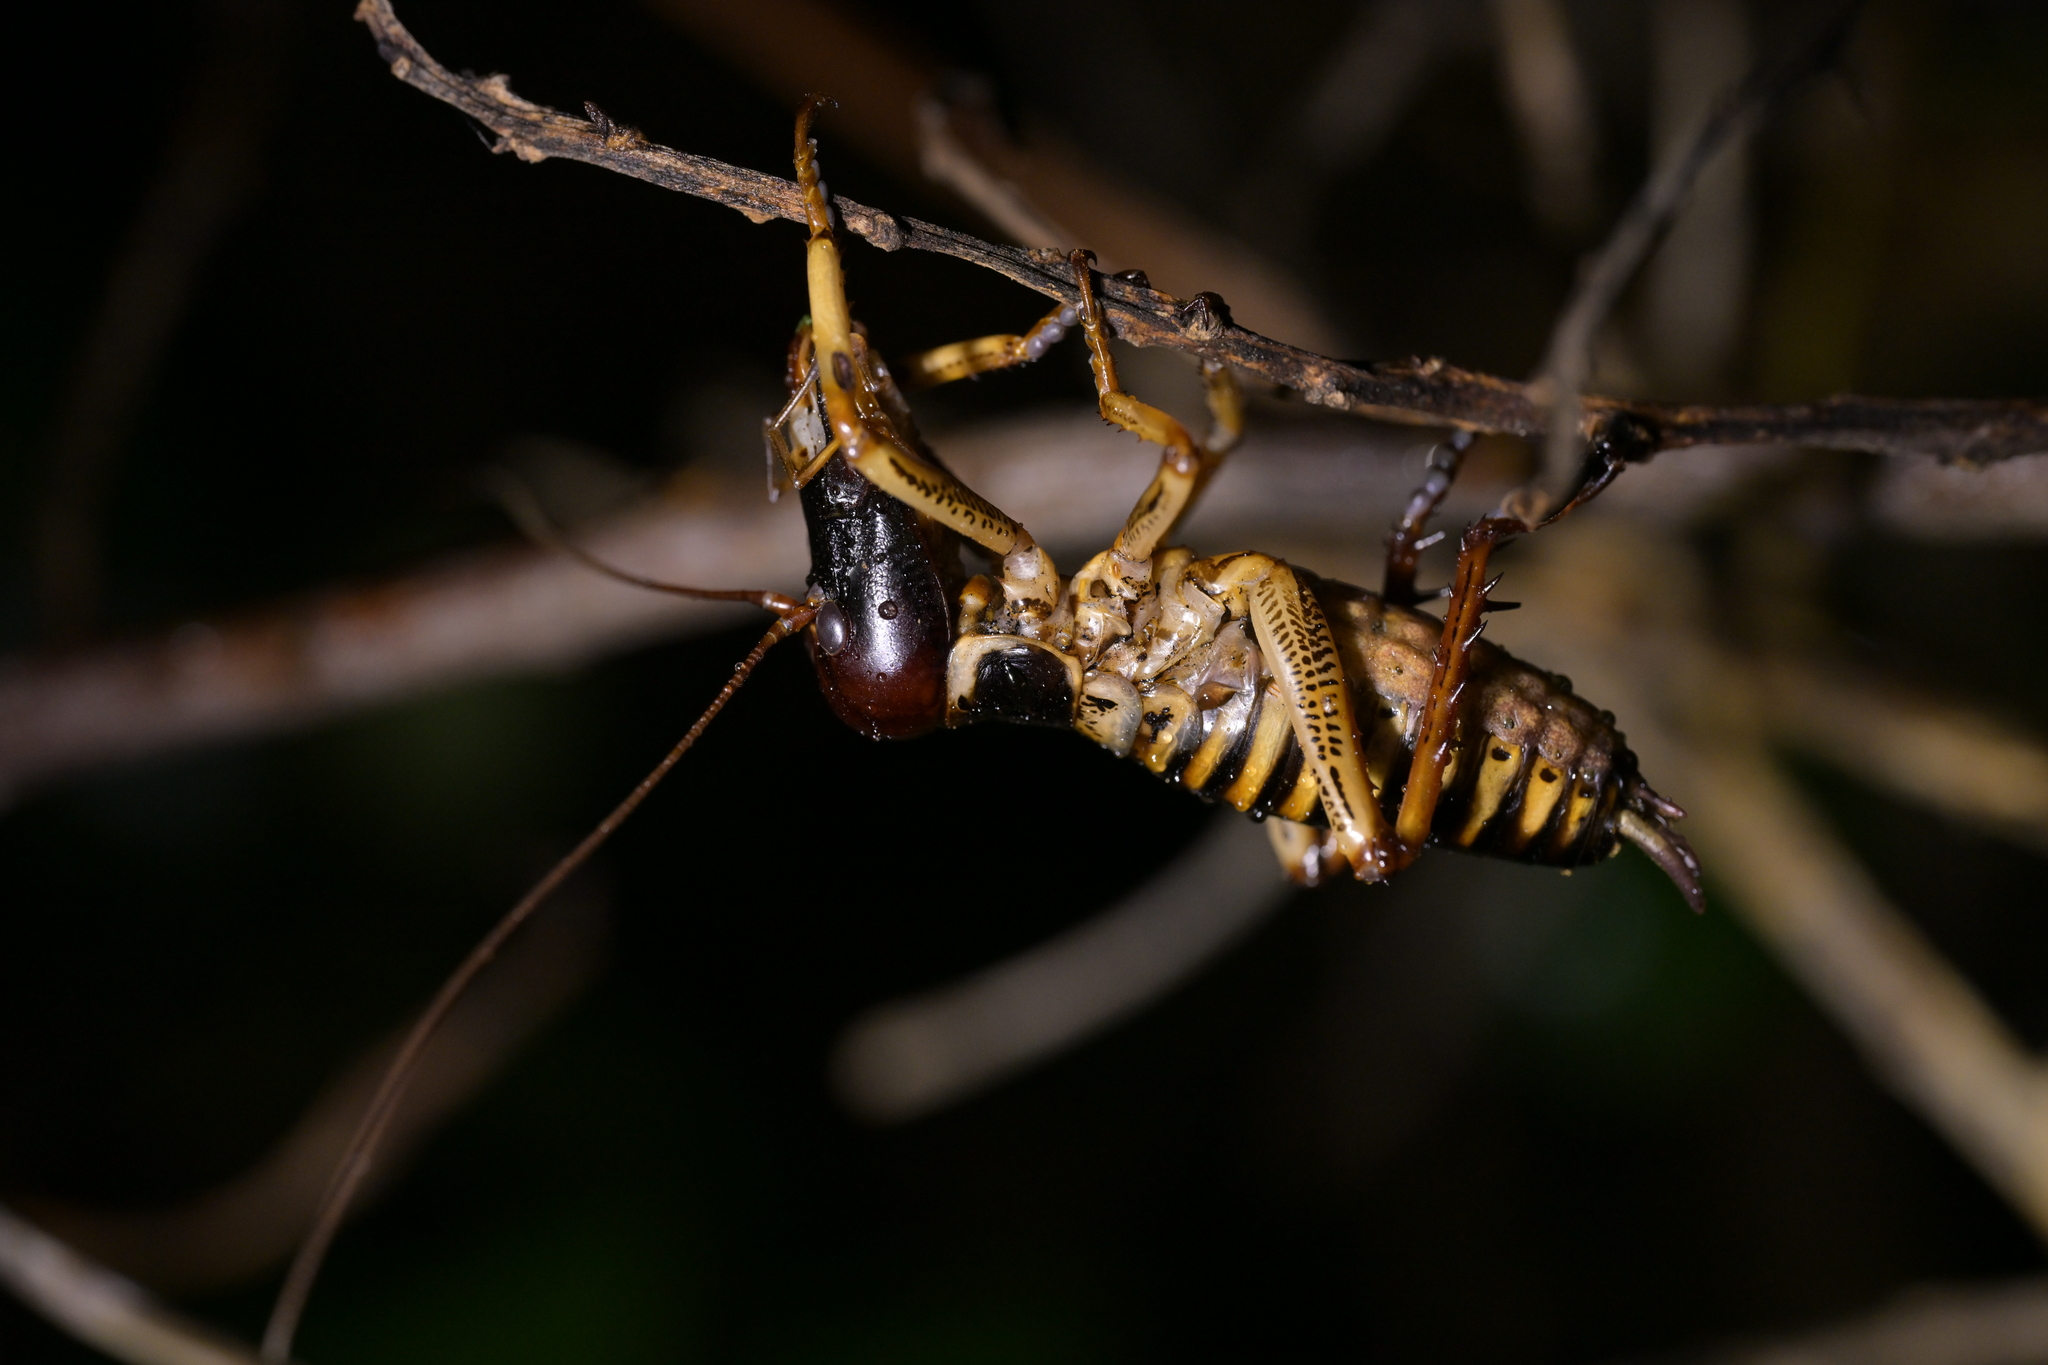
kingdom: Animalia
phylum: Arthropoda
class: Insecta
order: Orthoptera
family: Anostostomatidae
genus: Hemideina
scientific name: Hemideina crassidens
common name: Wellington tree weta
